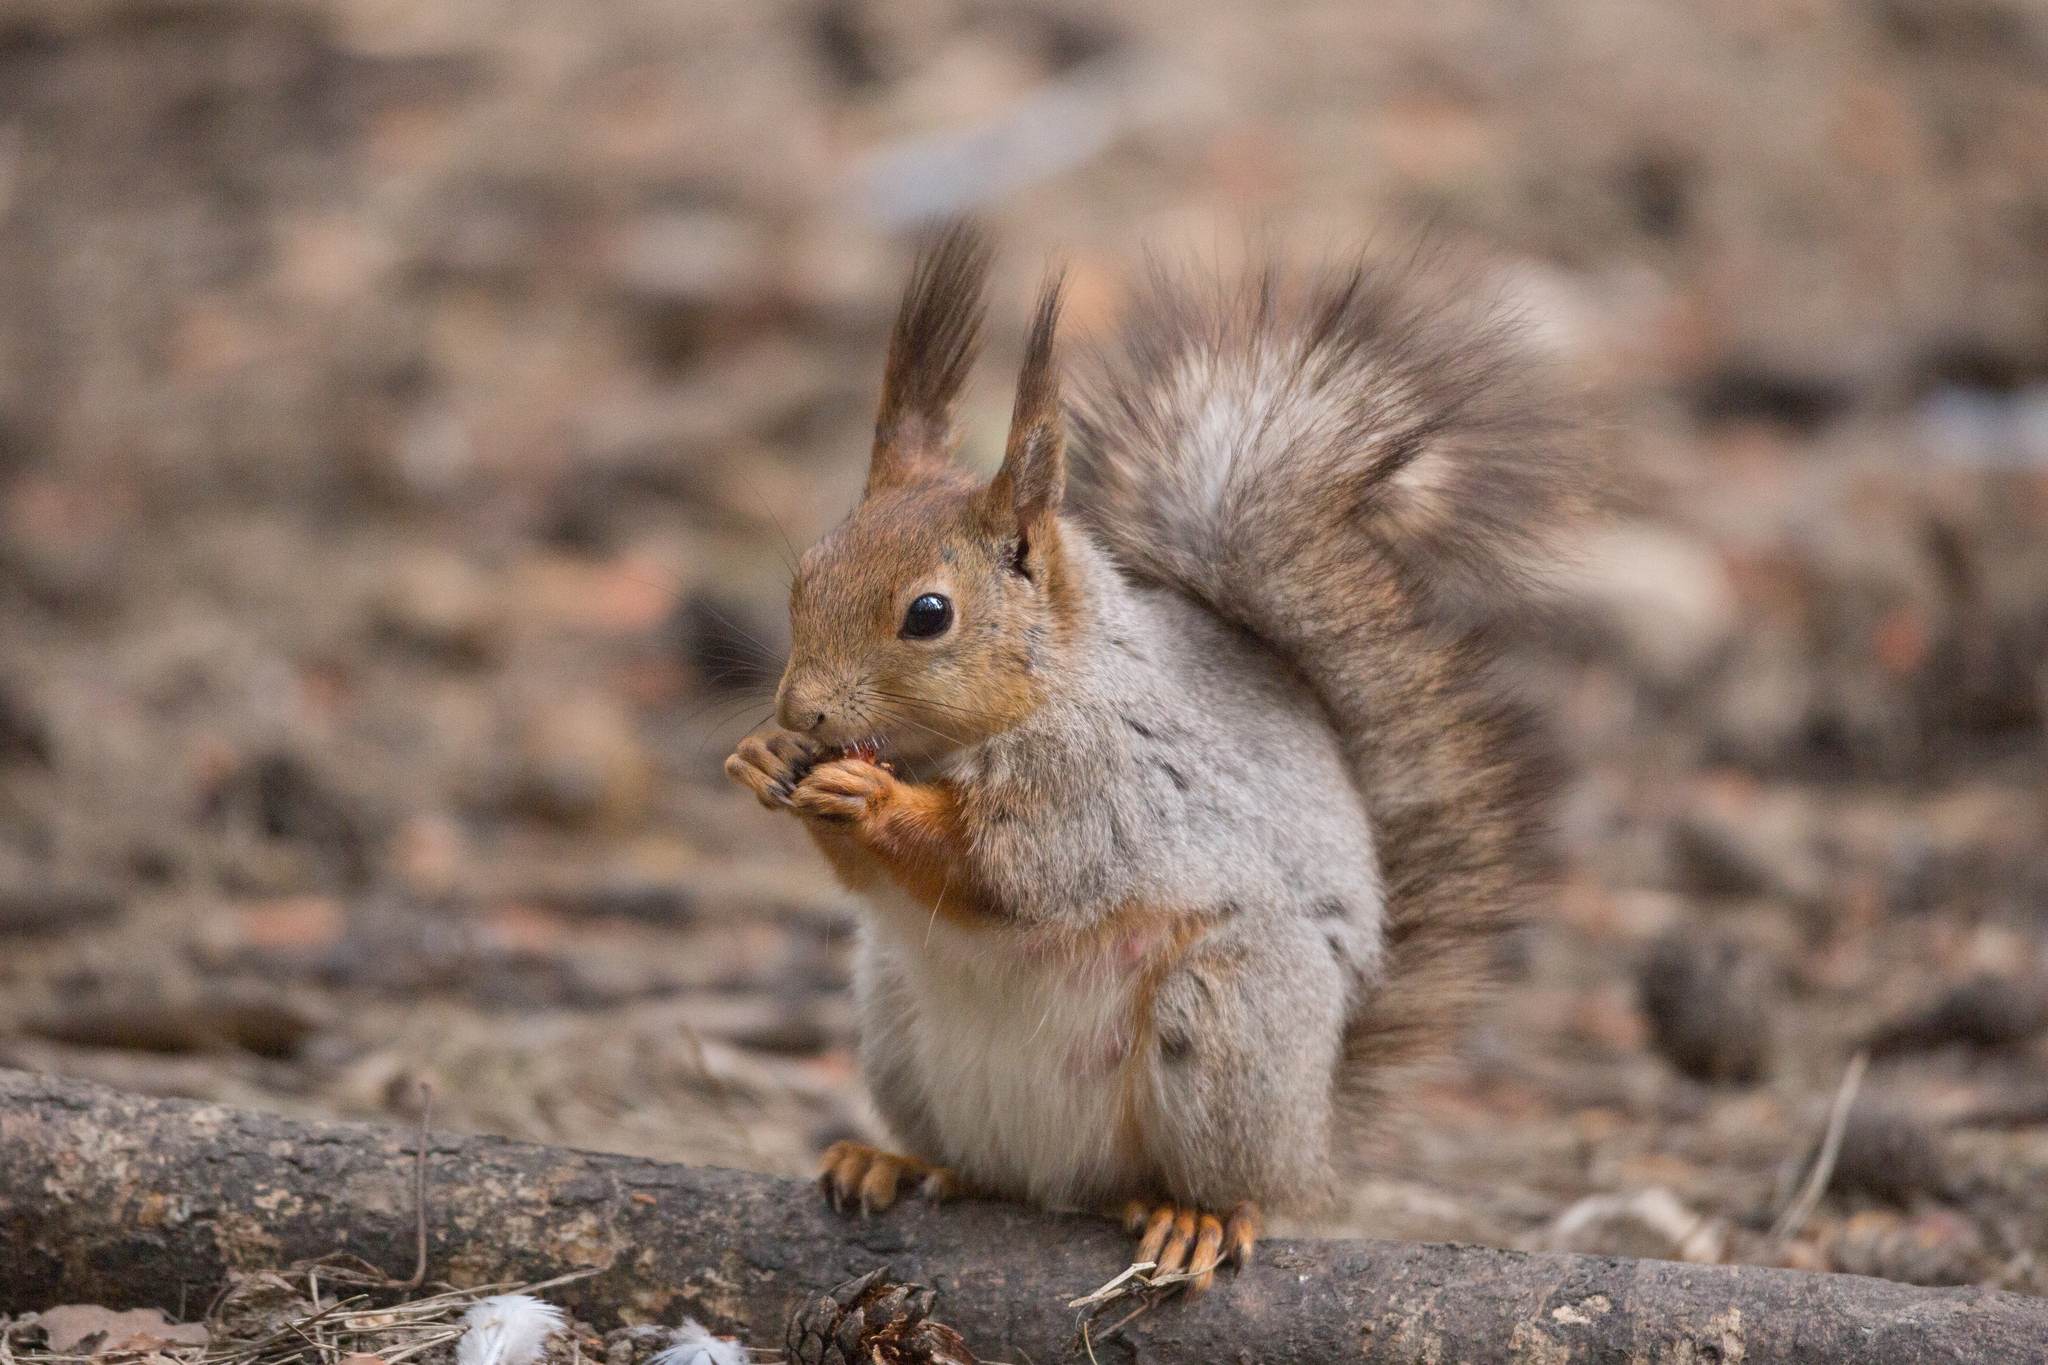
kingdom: Animalia
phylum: Chordata
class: Mammalia
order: Rodentia
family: Sciuridae
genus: Sciurus
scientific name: Sciurus vulgaris
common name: Eurasian red squirrel
